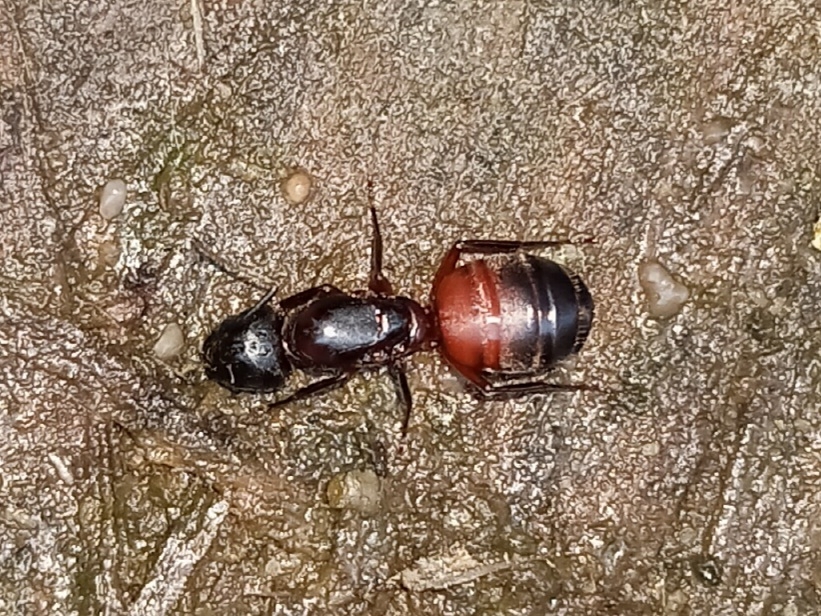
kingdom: Animalia
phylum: Arthropoda
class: Insecta
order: Hymenoptera
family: Formicidae
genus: Camponotus
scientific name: Camponotus chromaiodes
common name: Red carpenter ant
